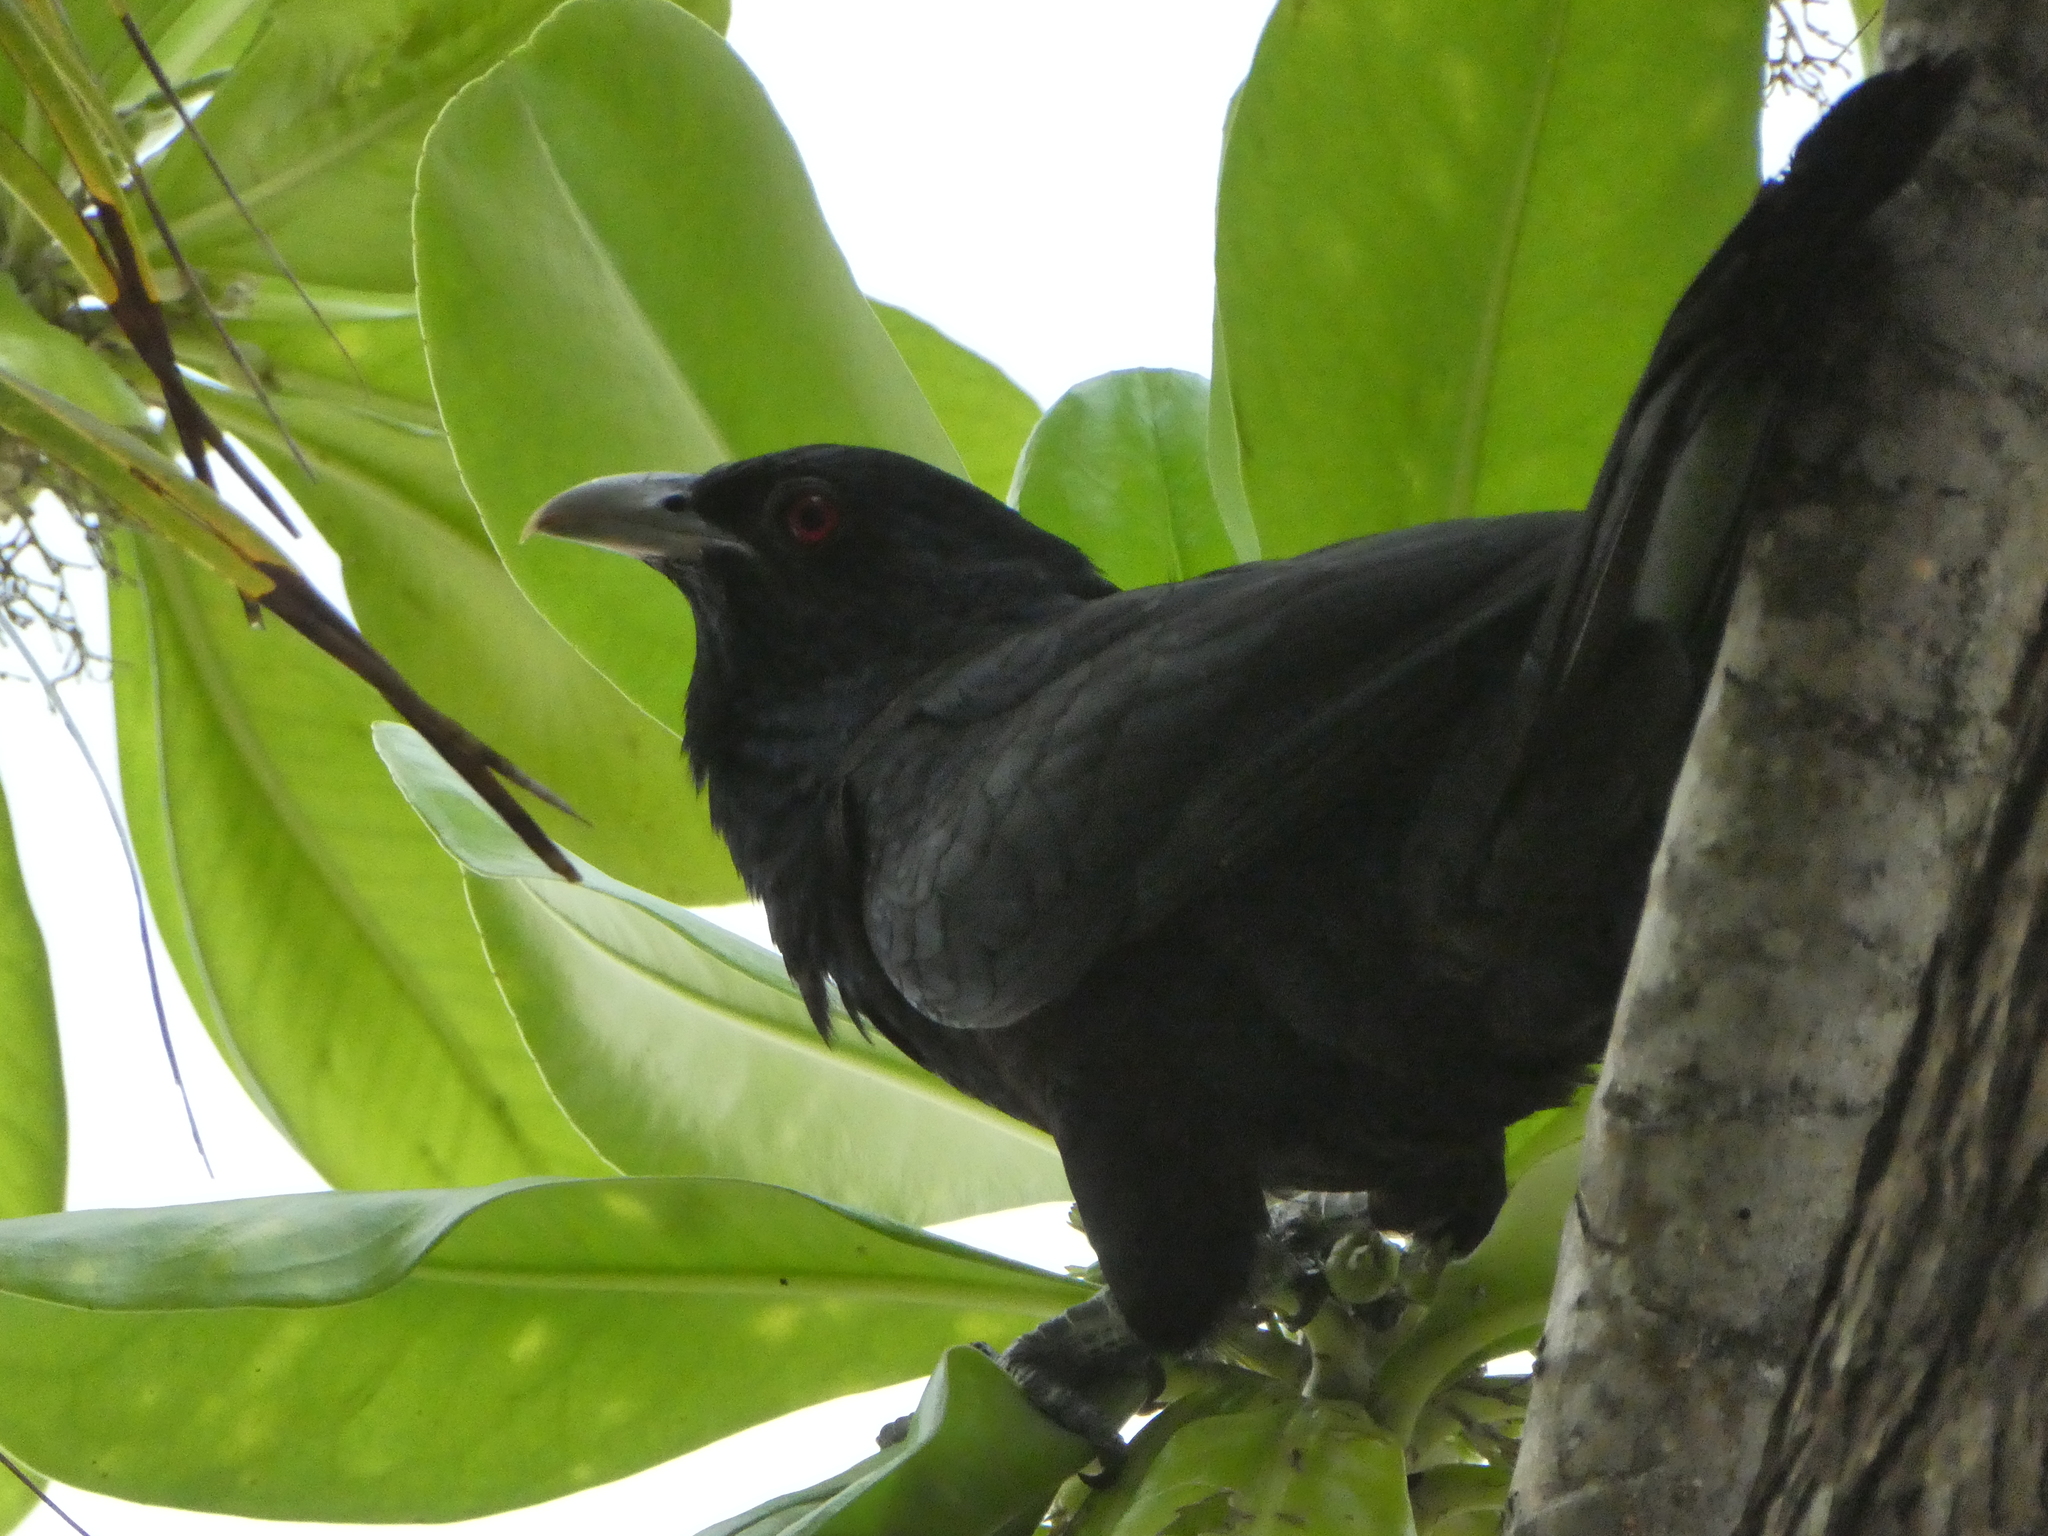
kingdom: Animalia
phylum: Chordata
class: Aves
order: Cuculiformes
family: Cuculidae
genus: Eudynamys
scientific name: Eudynamys scolopaceus
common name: Asian koel
